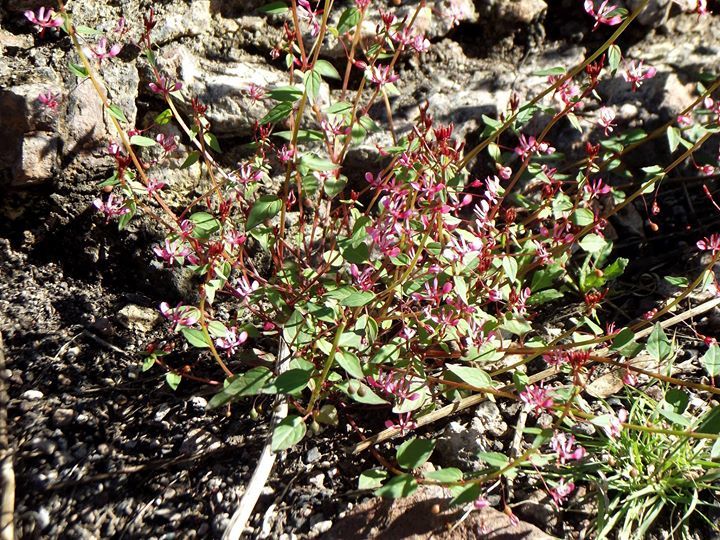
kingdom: Plantae
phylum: Tracheophyta
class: Magnoliopsida
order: Myrtales
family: Onagraceae
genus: Lopezia
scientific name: Lopezia racemosa
